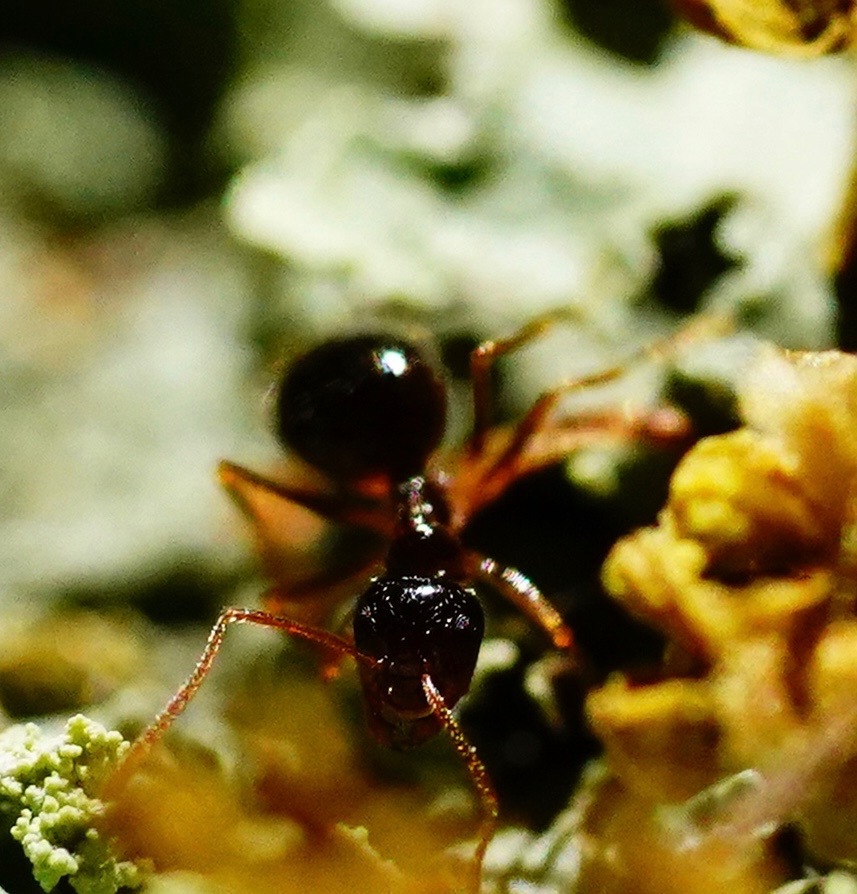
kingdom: Animalia
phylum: Arthropoda
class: Insecta
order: Hymenoptera
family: Formicidae
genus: Prenolepis
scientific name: Prenolepis imparis
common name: Small honey ant
